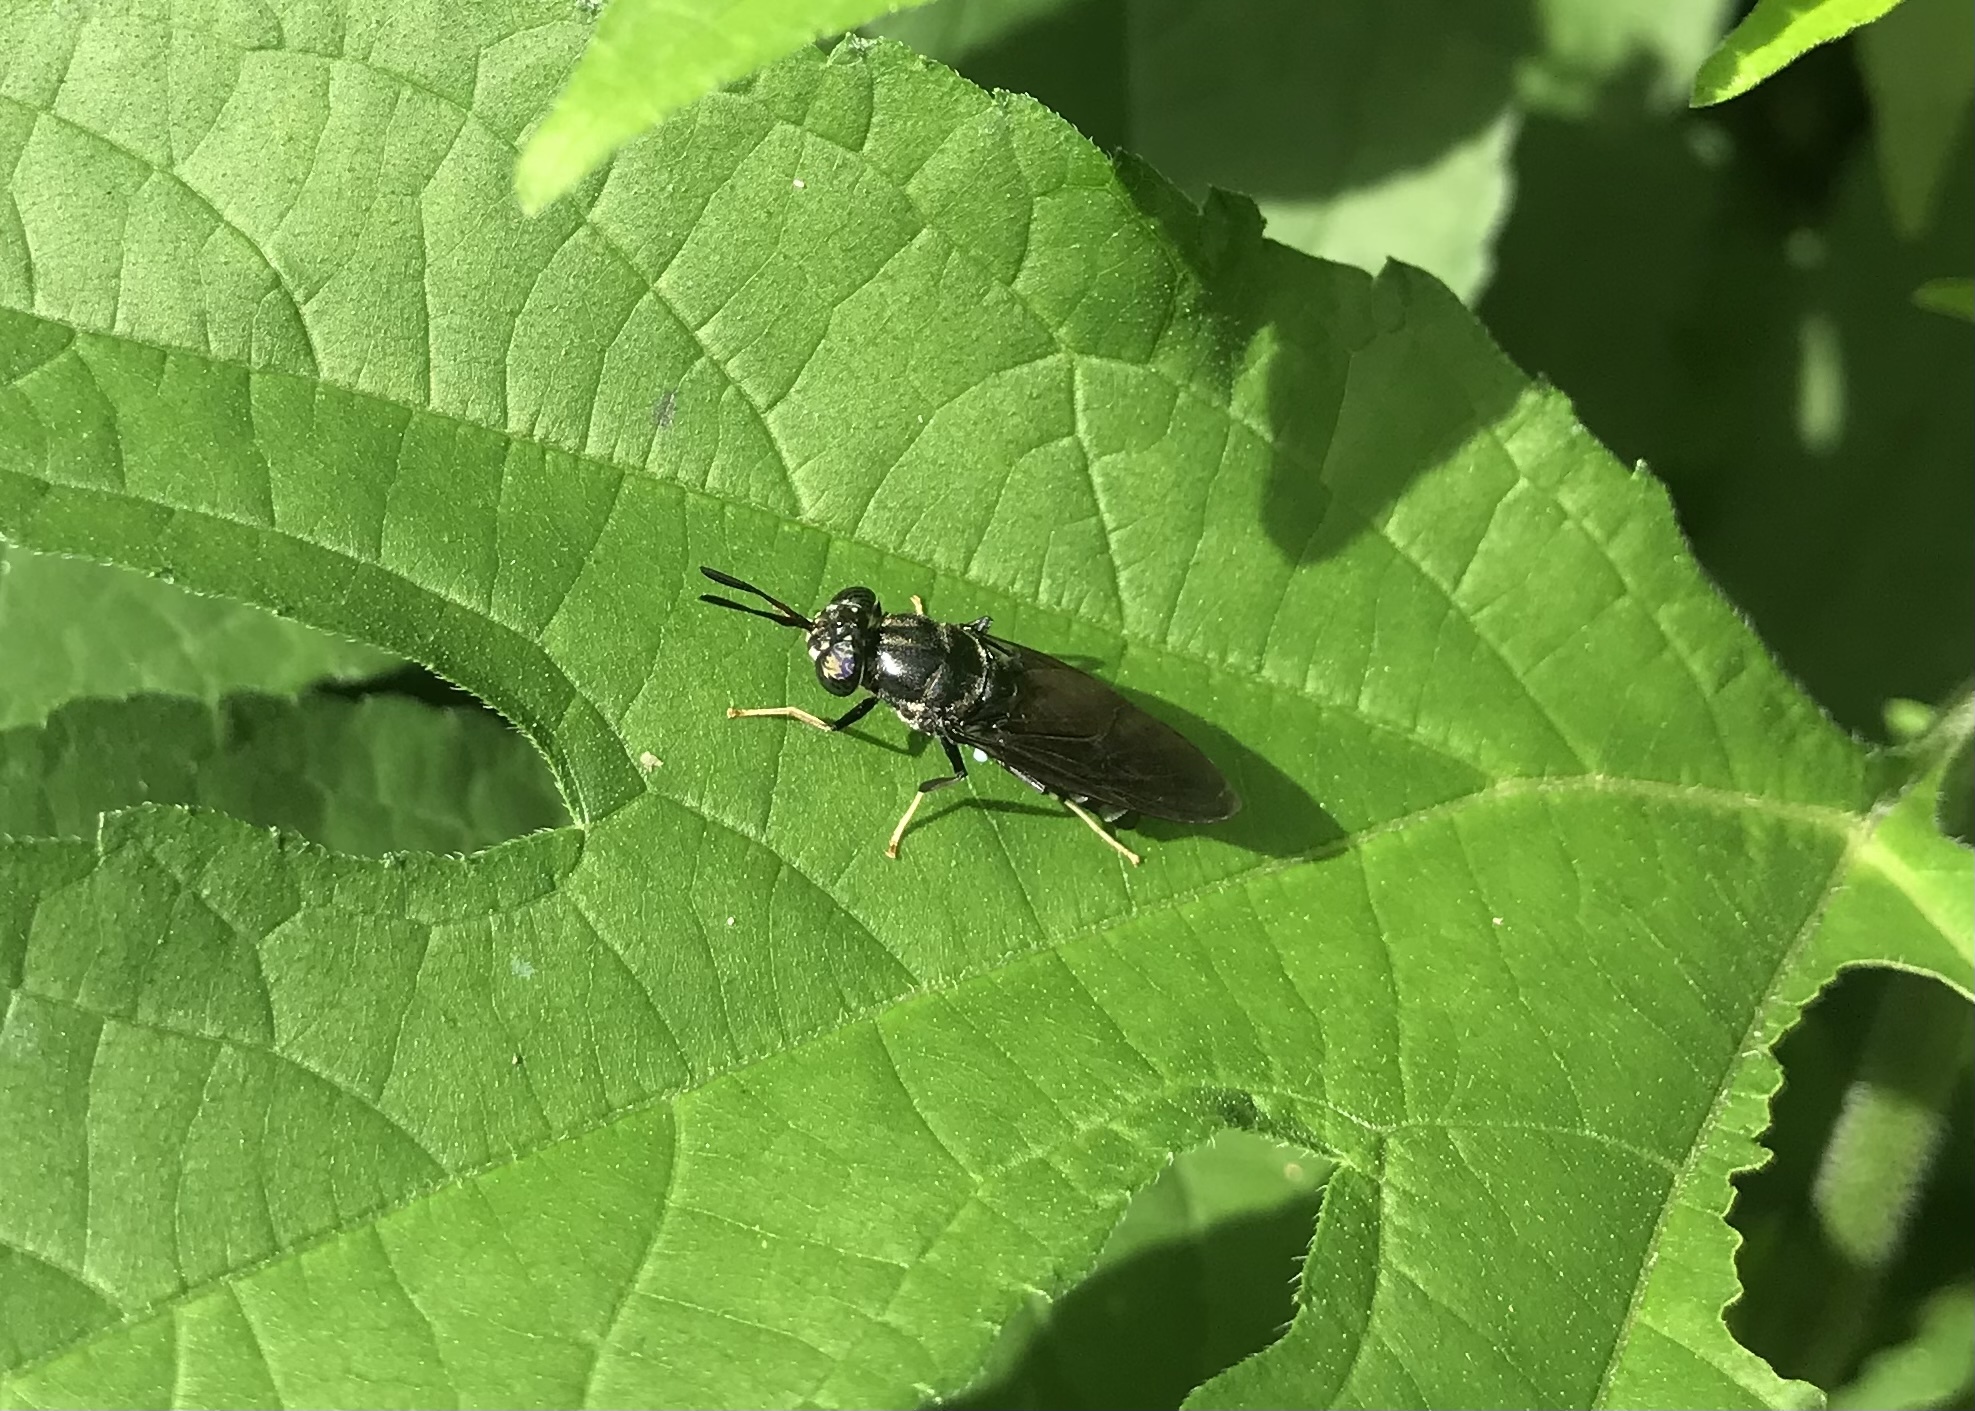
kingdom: Animalia
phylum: Arthropoda
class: Insecta
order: Diptera
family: Stratiomyidae
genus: Hermetia
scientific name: Hermetia illucens
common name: Black soldier fly
